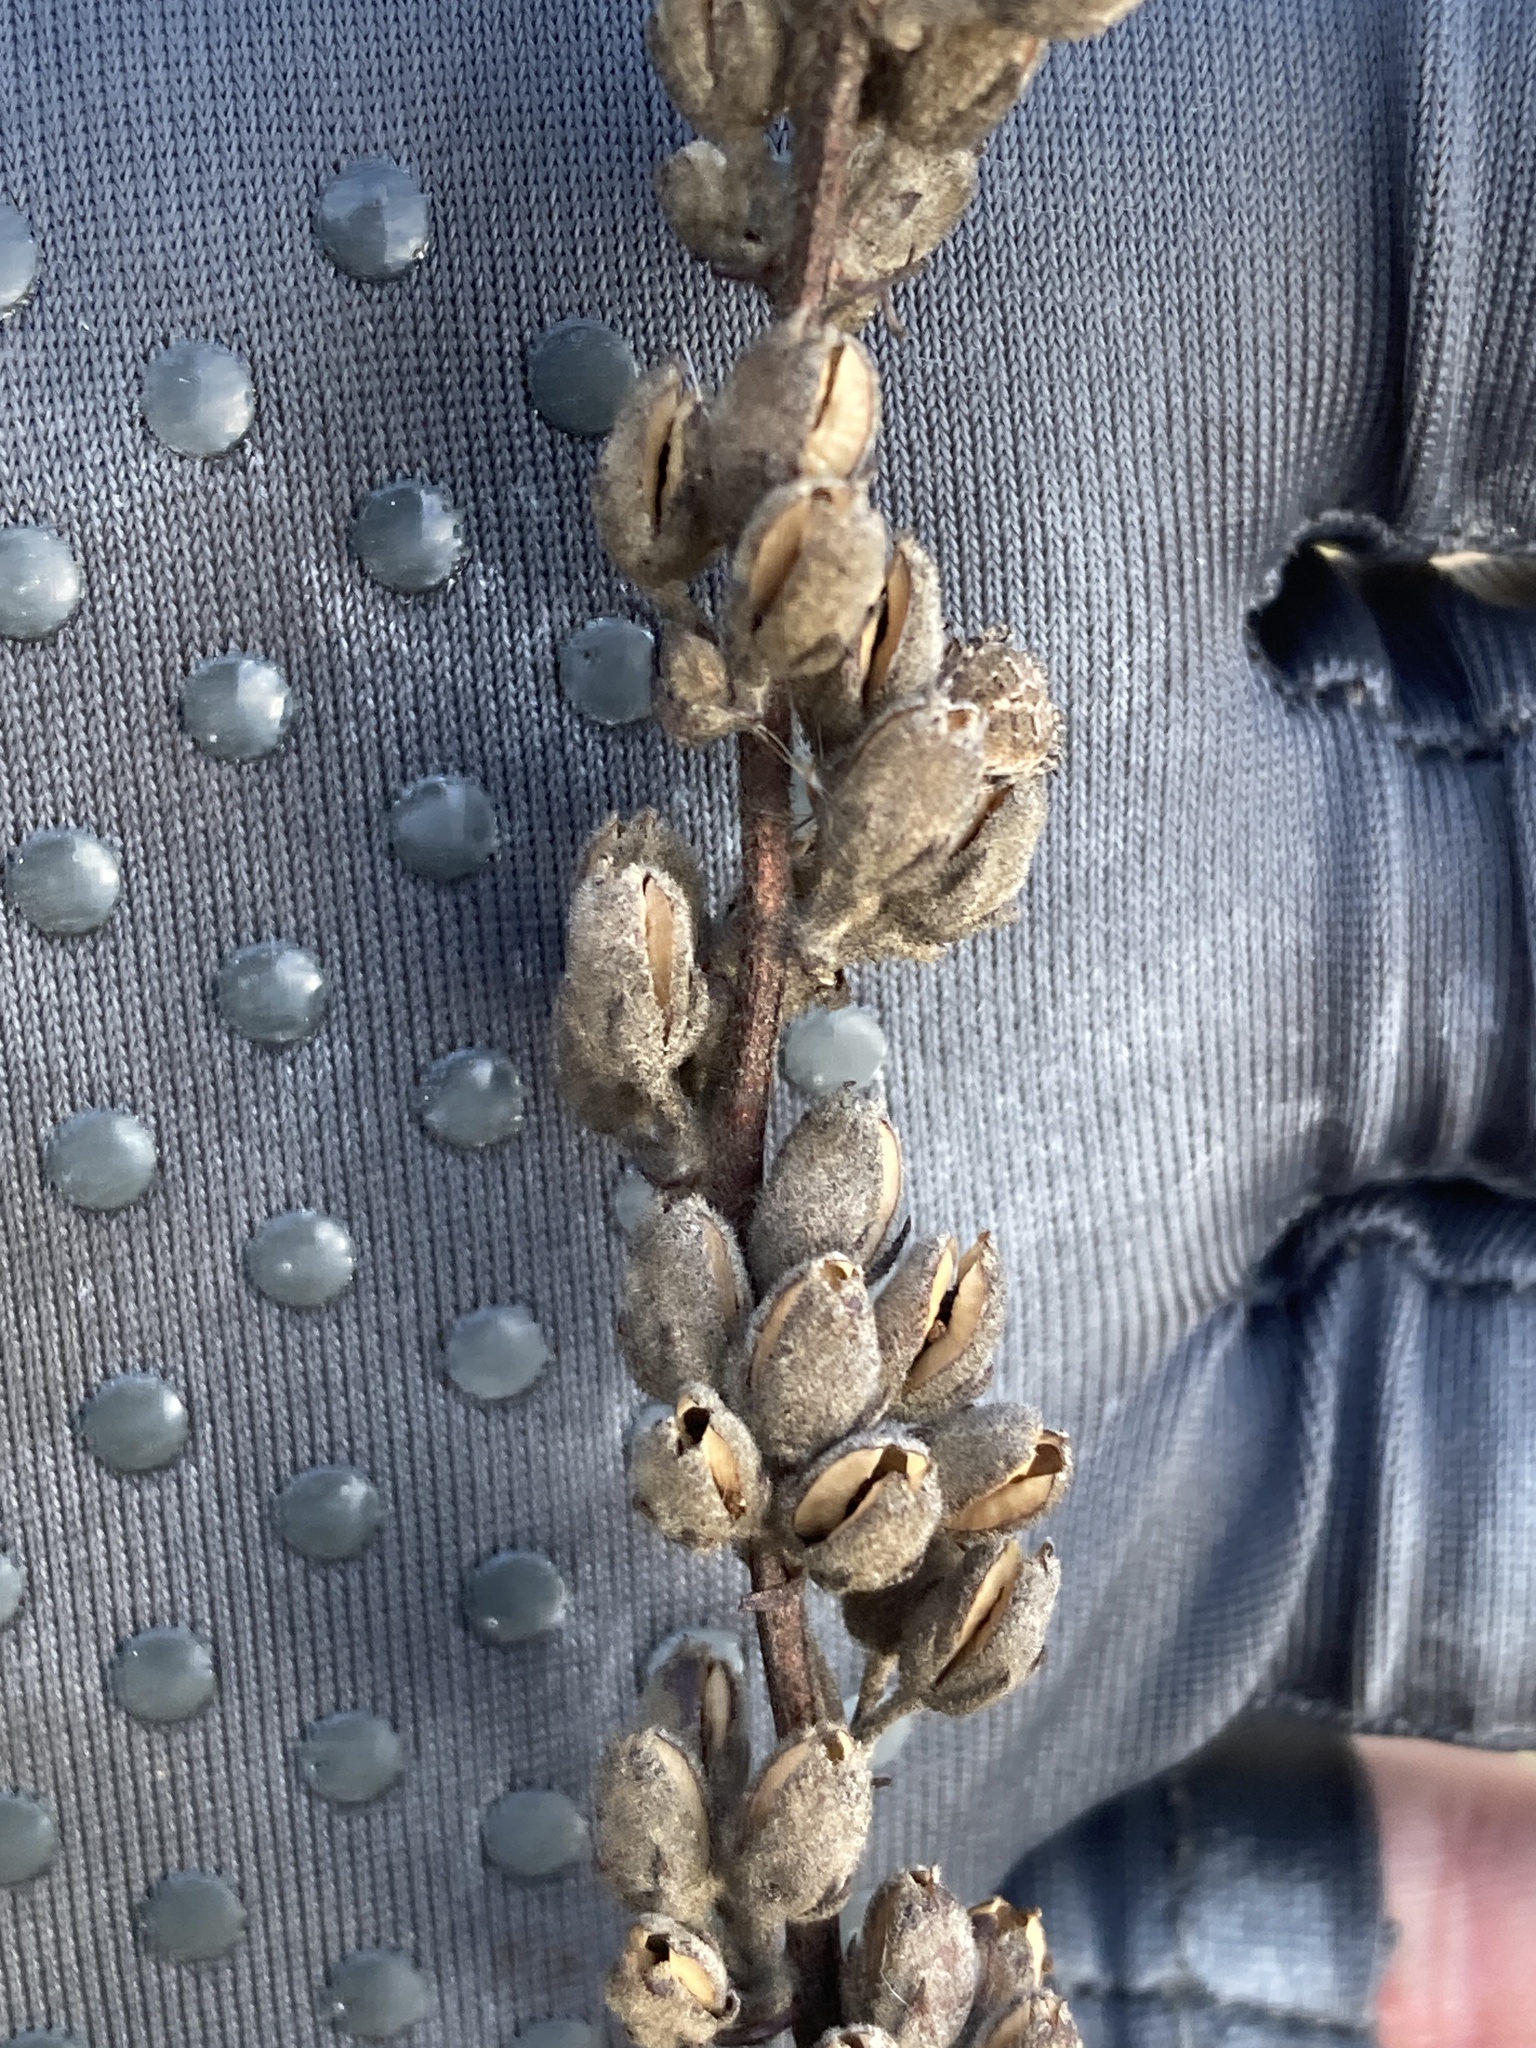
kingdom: Plantae
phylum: Tracheophyta
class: Magnoliopsida
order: Lamiales
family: Scrophulariaceae
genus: Verbascum
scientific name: Verbascum chaixii
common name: Nettle-leaved mullein
